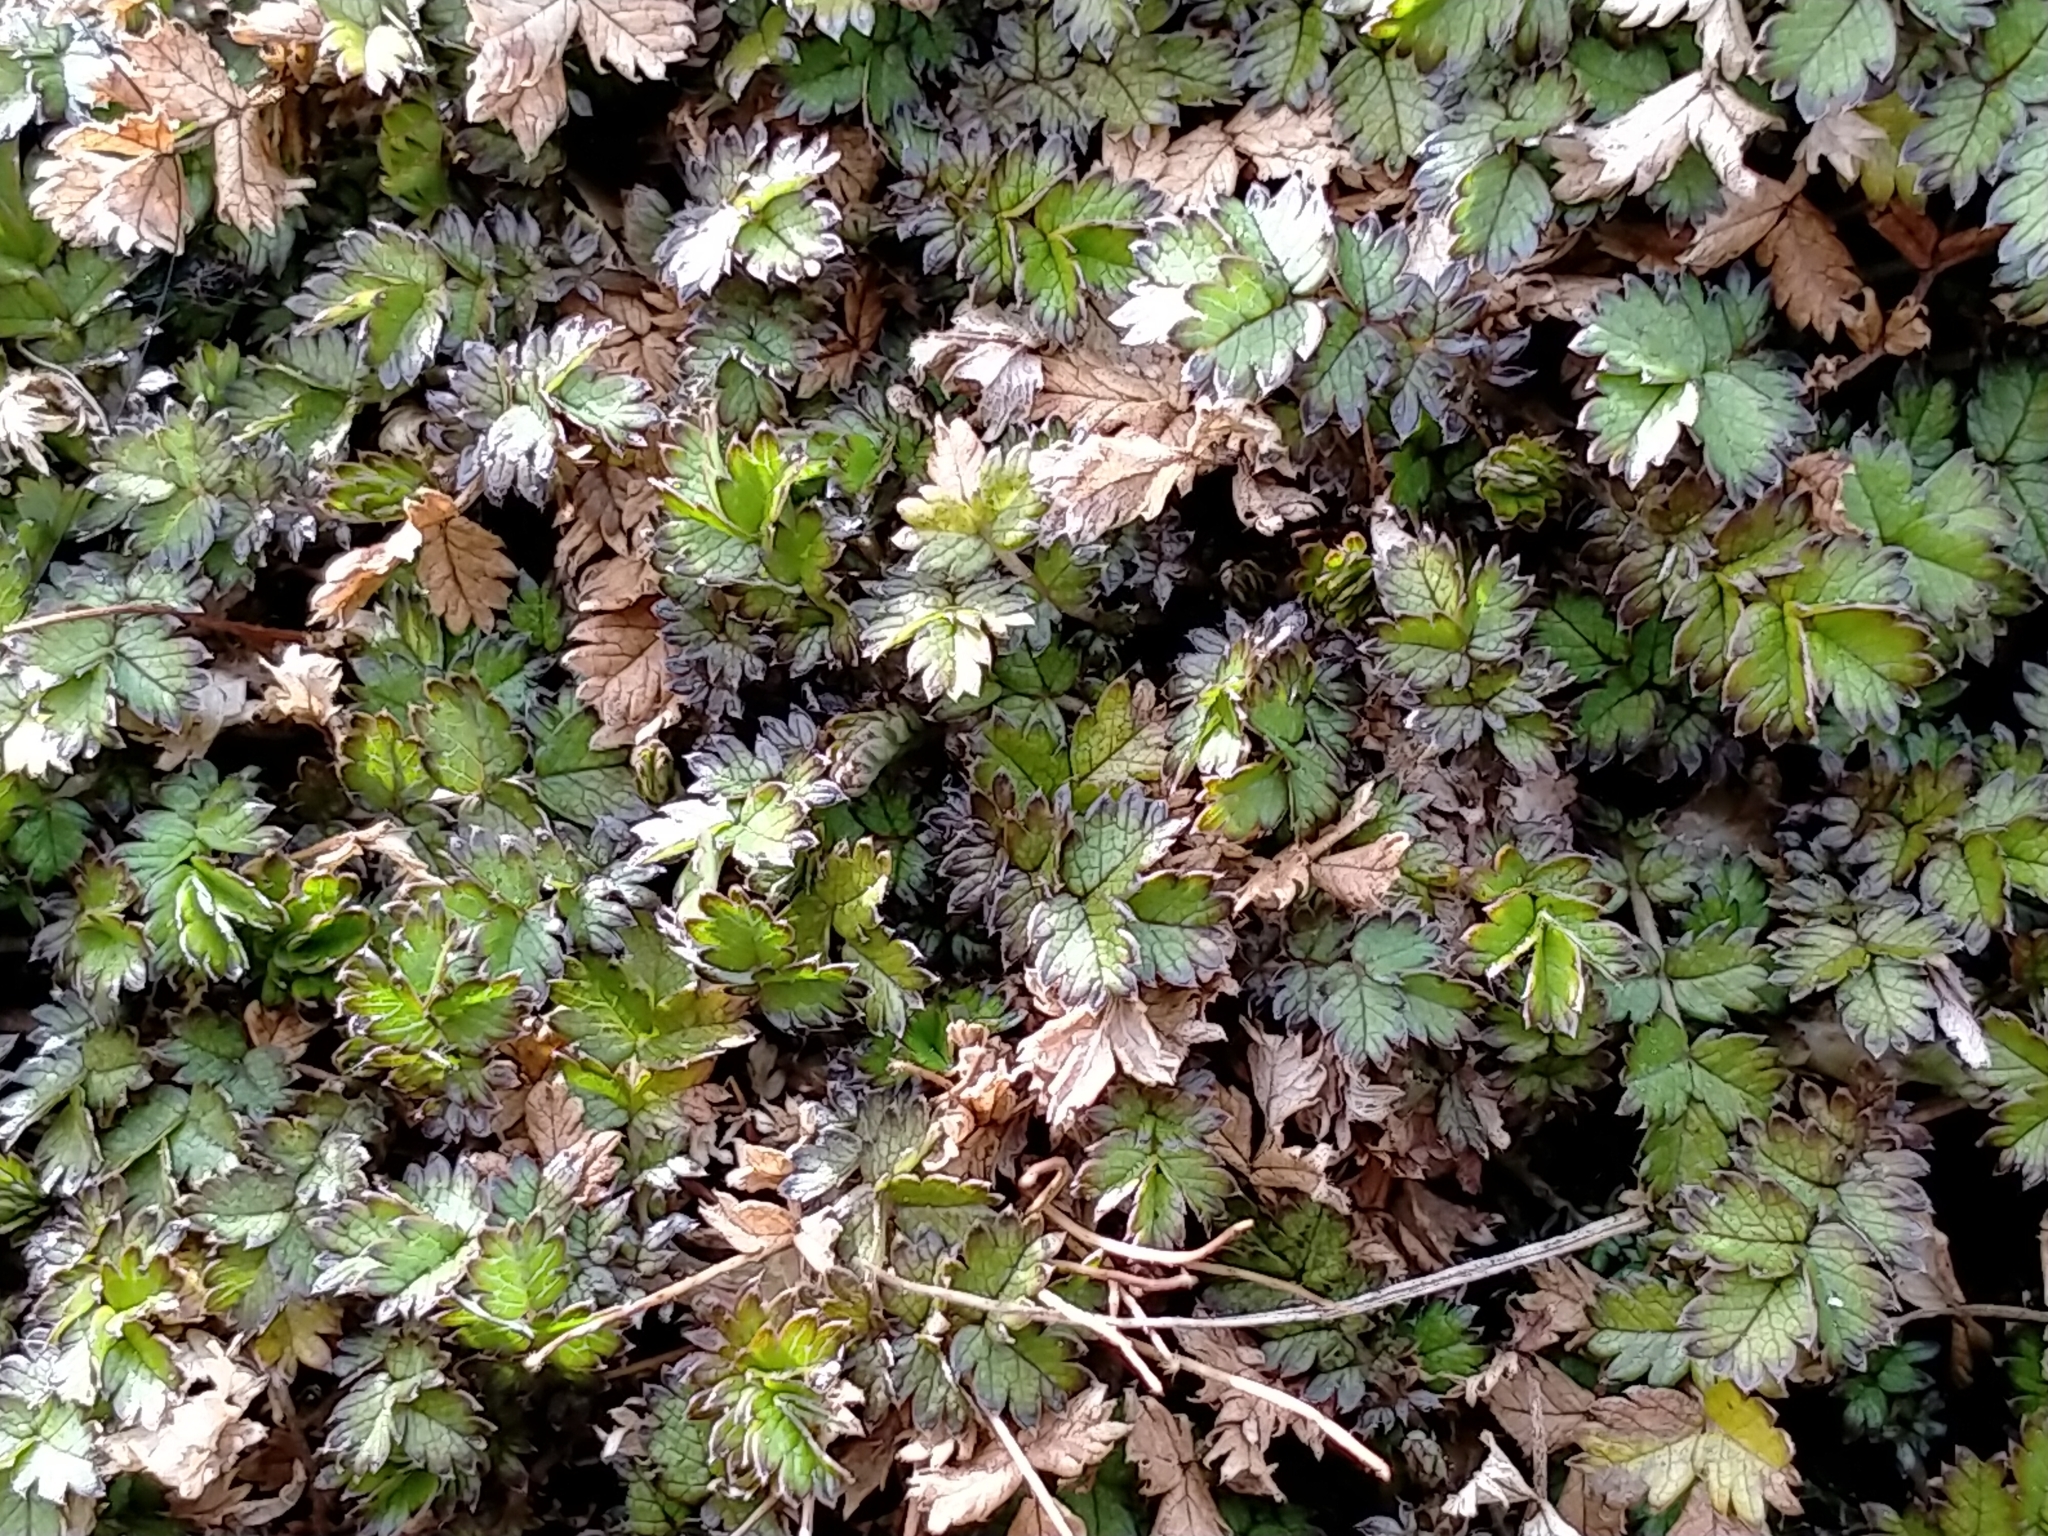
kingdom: Plantae
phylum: Tracheophyta
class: Magnoliopsida
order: Rosales
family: Rosaceae
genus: Acaena
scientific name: Acaena microphylla
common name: New zealand-bur
